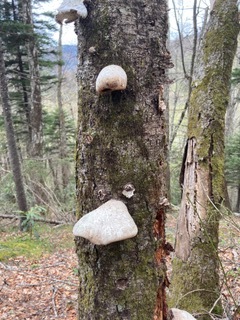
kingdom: Fungi
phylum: Basidiomycota
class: Agaricomycetes
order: Polyporales
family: Fomitopsidaceae
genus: Fomitopsis
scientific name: Fomitopsis betulina
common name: Birch polypore
